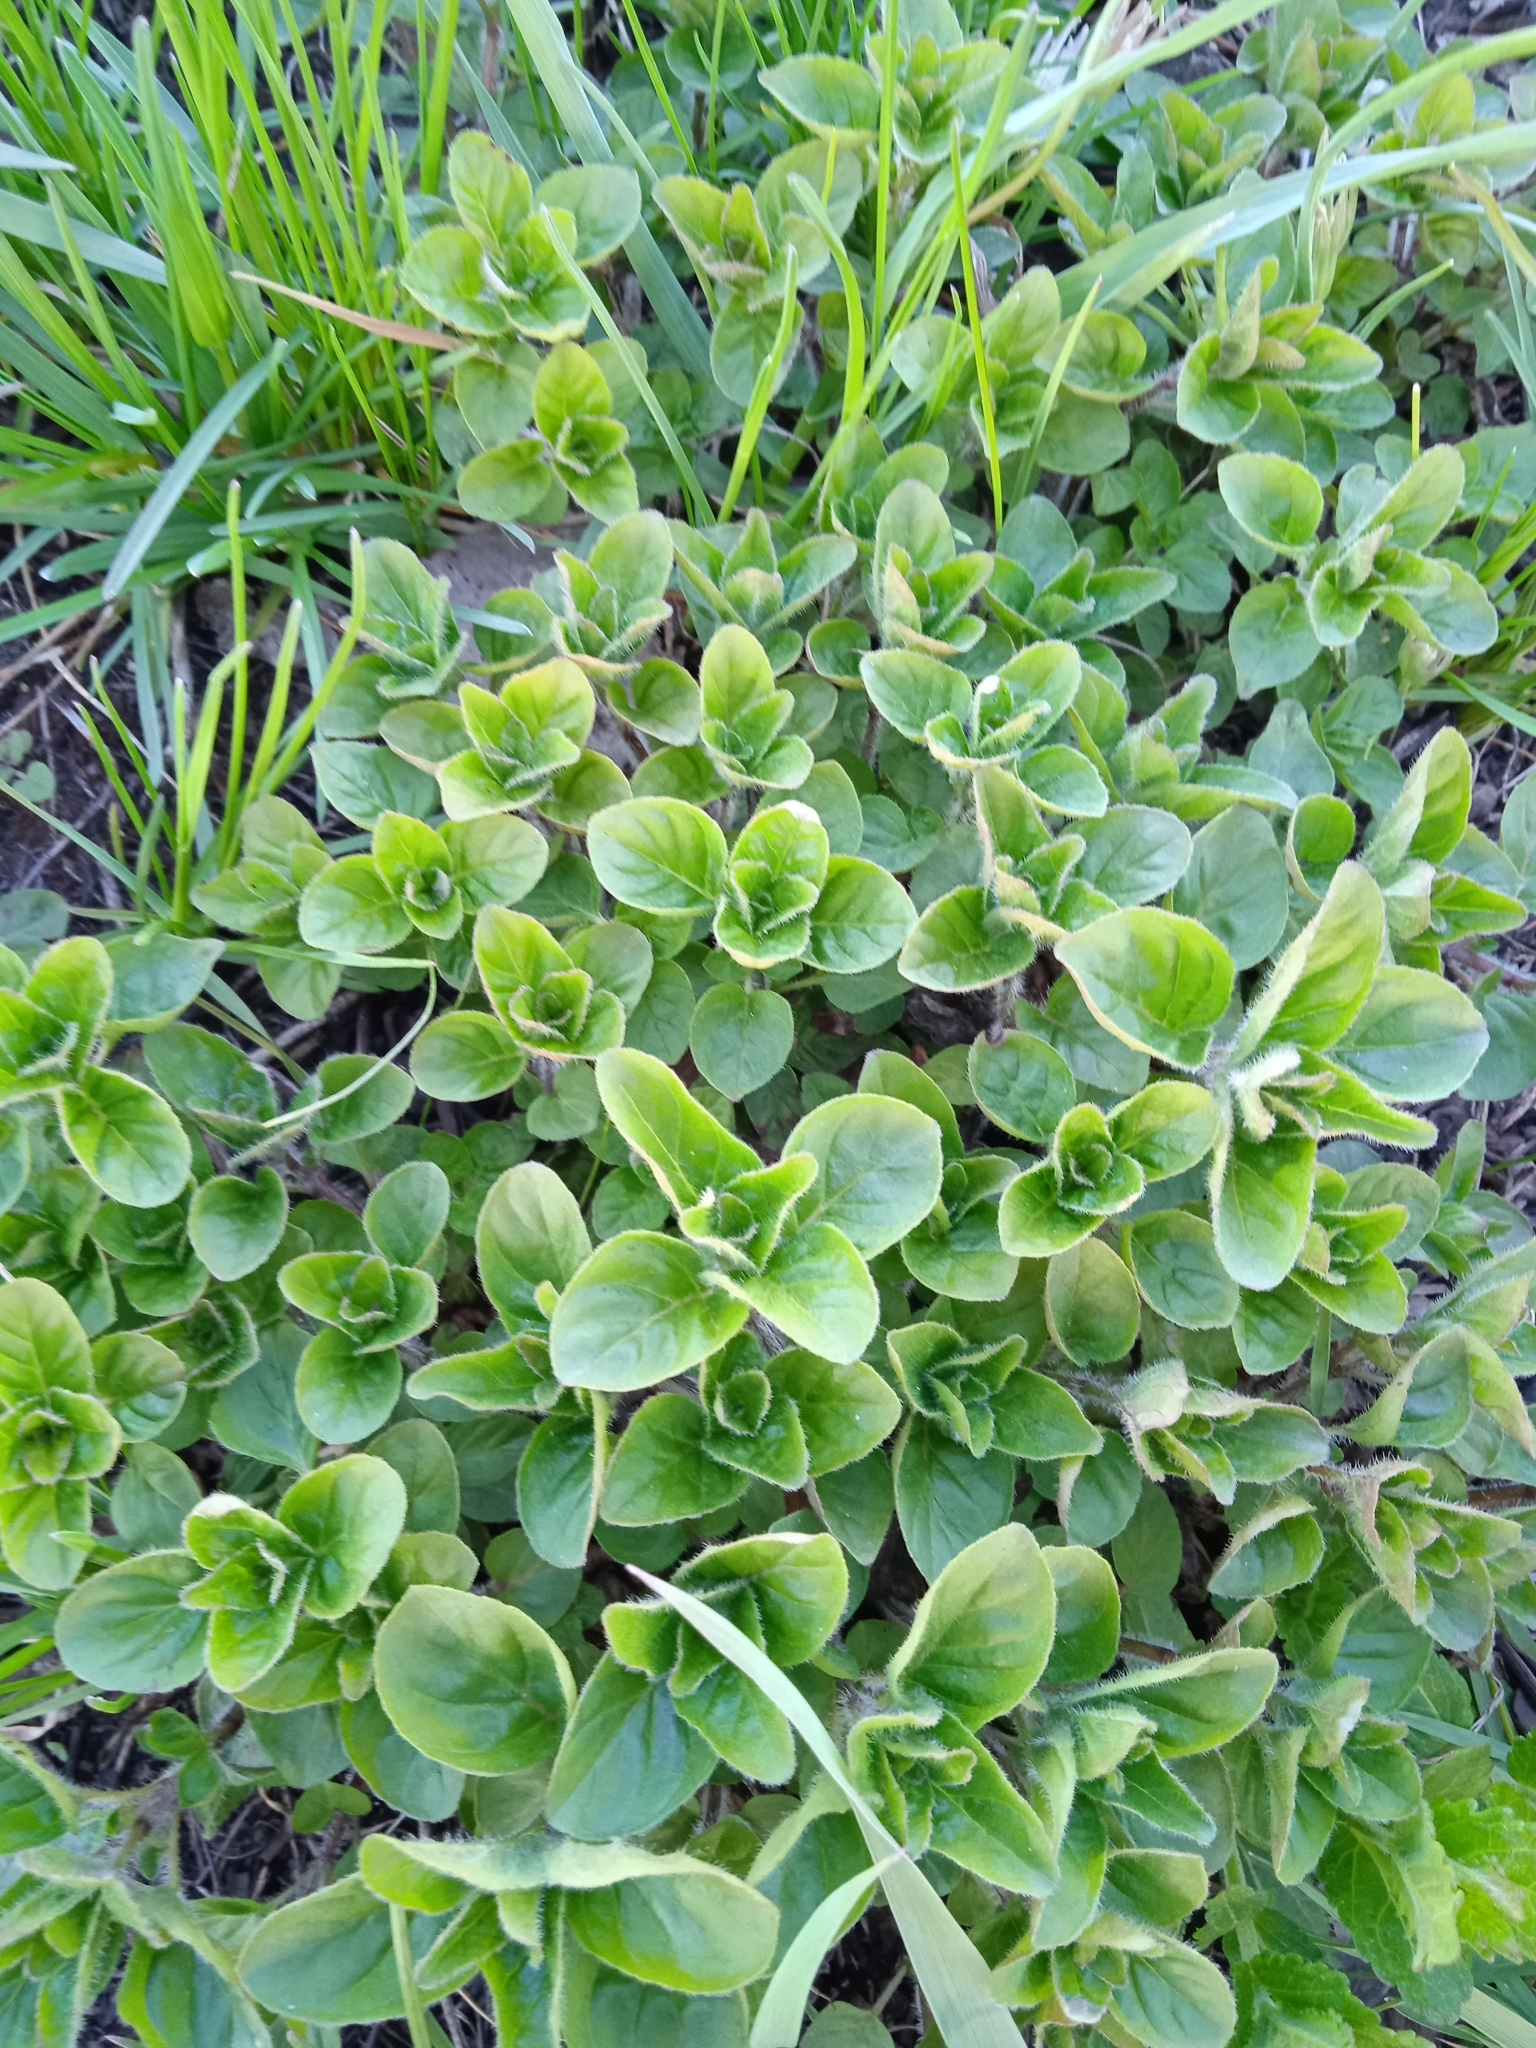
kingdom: Plantae
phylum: Tracheophyta
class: Magnoliopsida
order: Lamiales
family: Lamiaceae
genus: Origanum
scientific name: Origanum vulgare
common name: Wild marjoram
